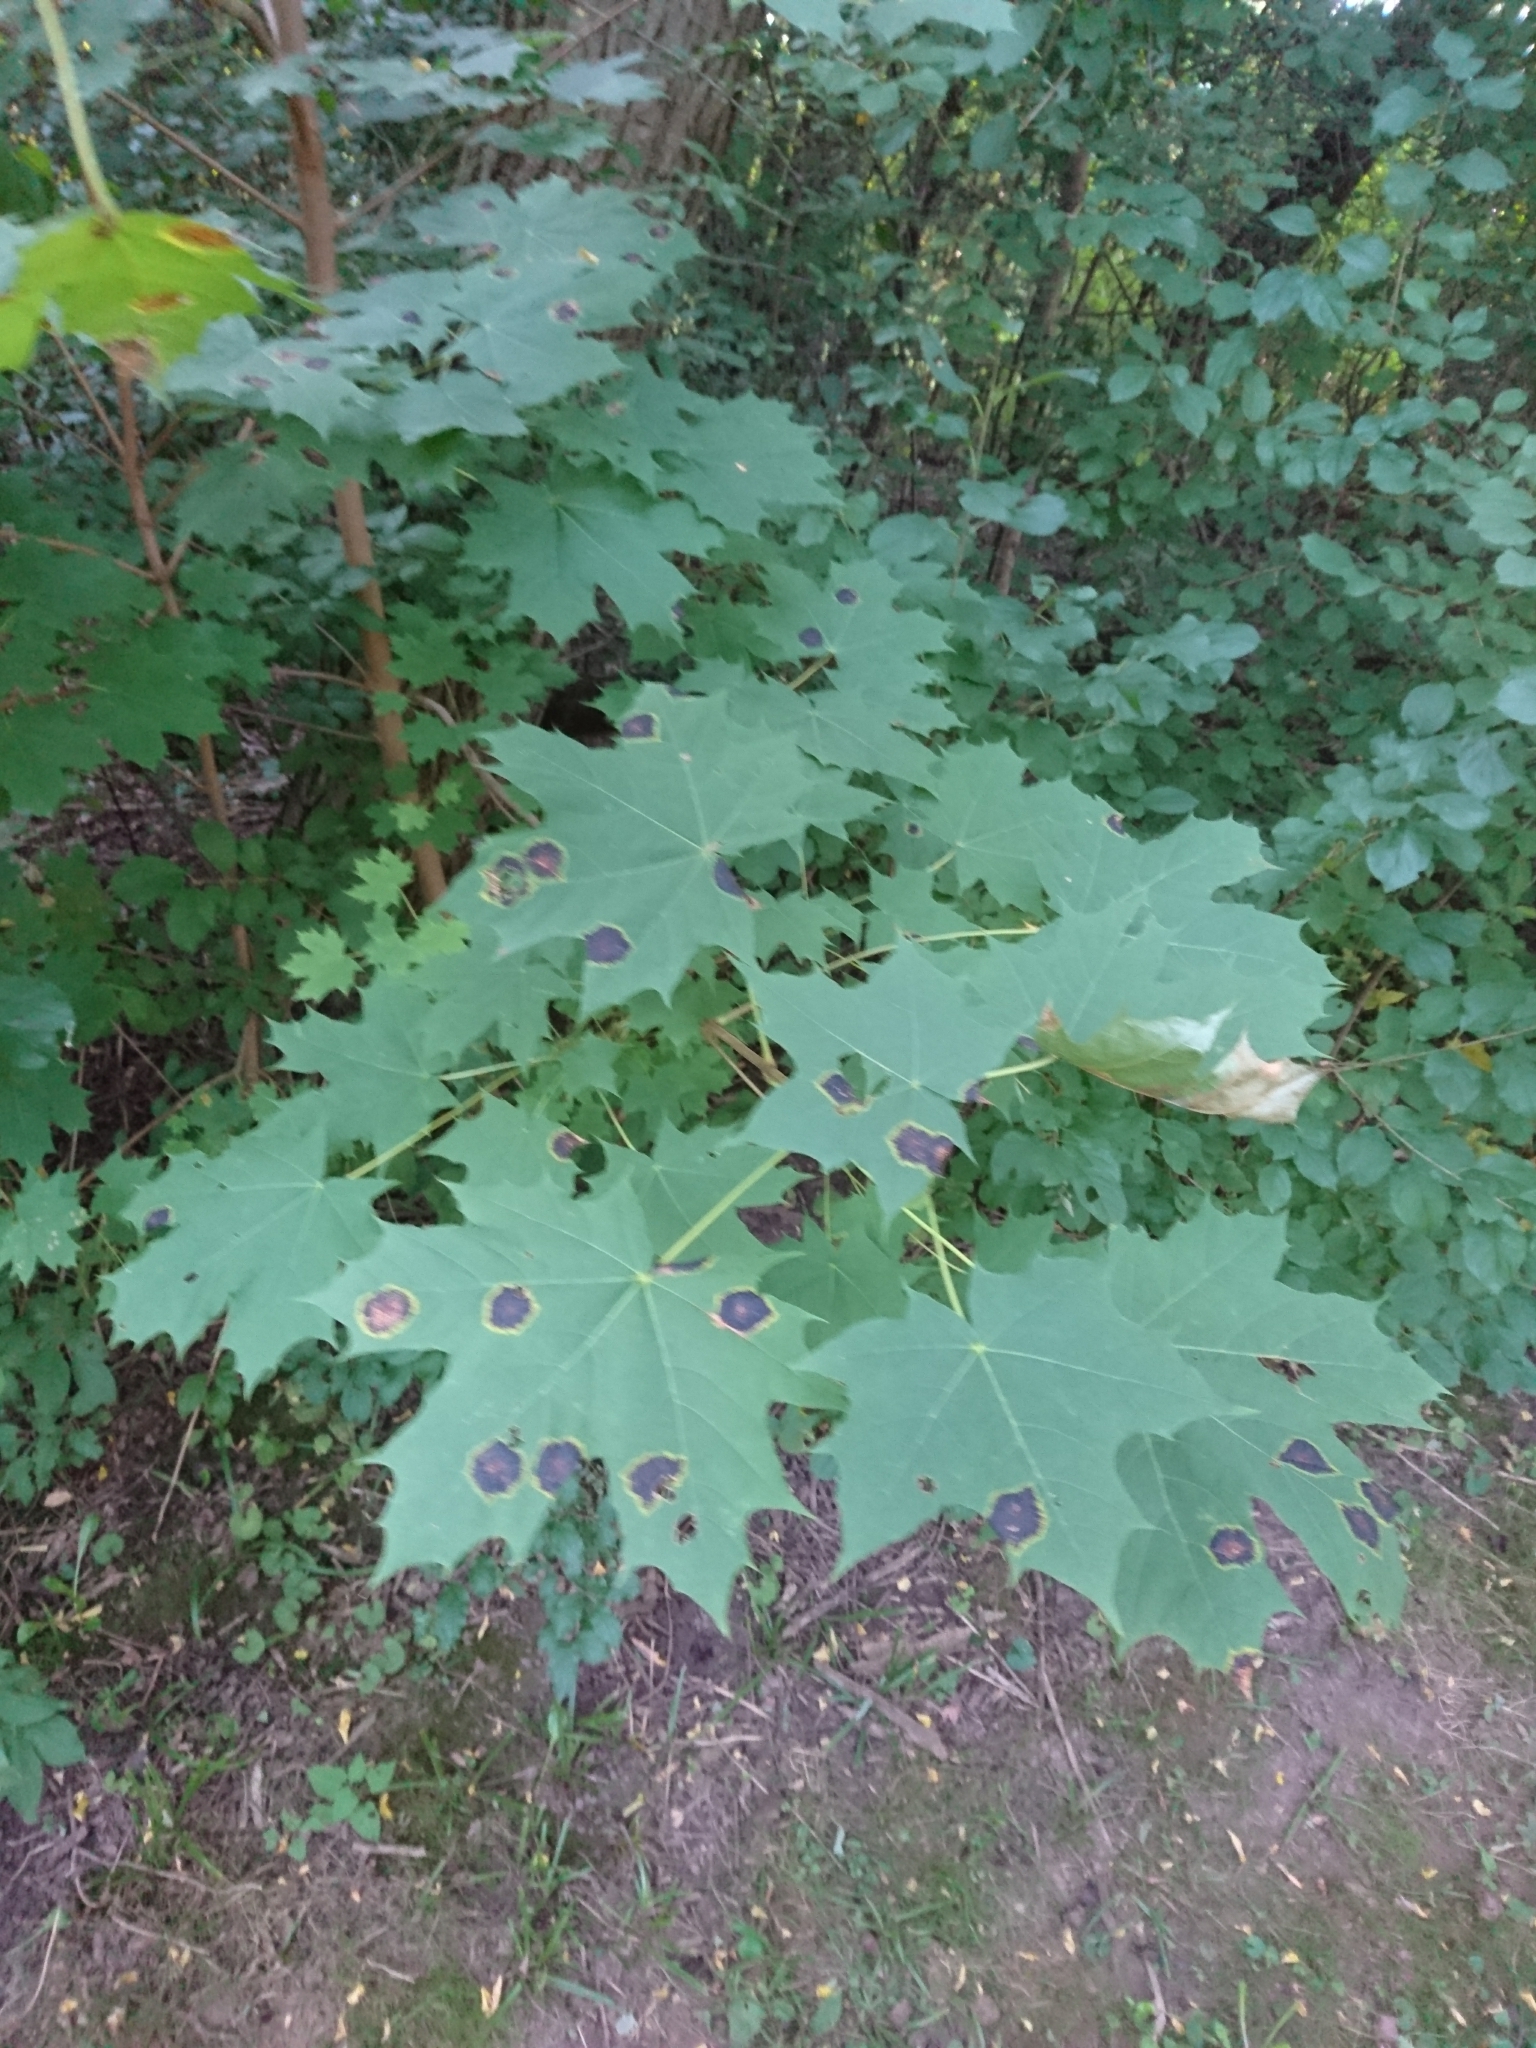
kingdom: Plantae
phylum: Tracheophyta
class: Magnoliopsida
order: Sapindales
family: Sapindaceae
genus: Acer
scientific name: Acer platanoides
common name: Norway maple
